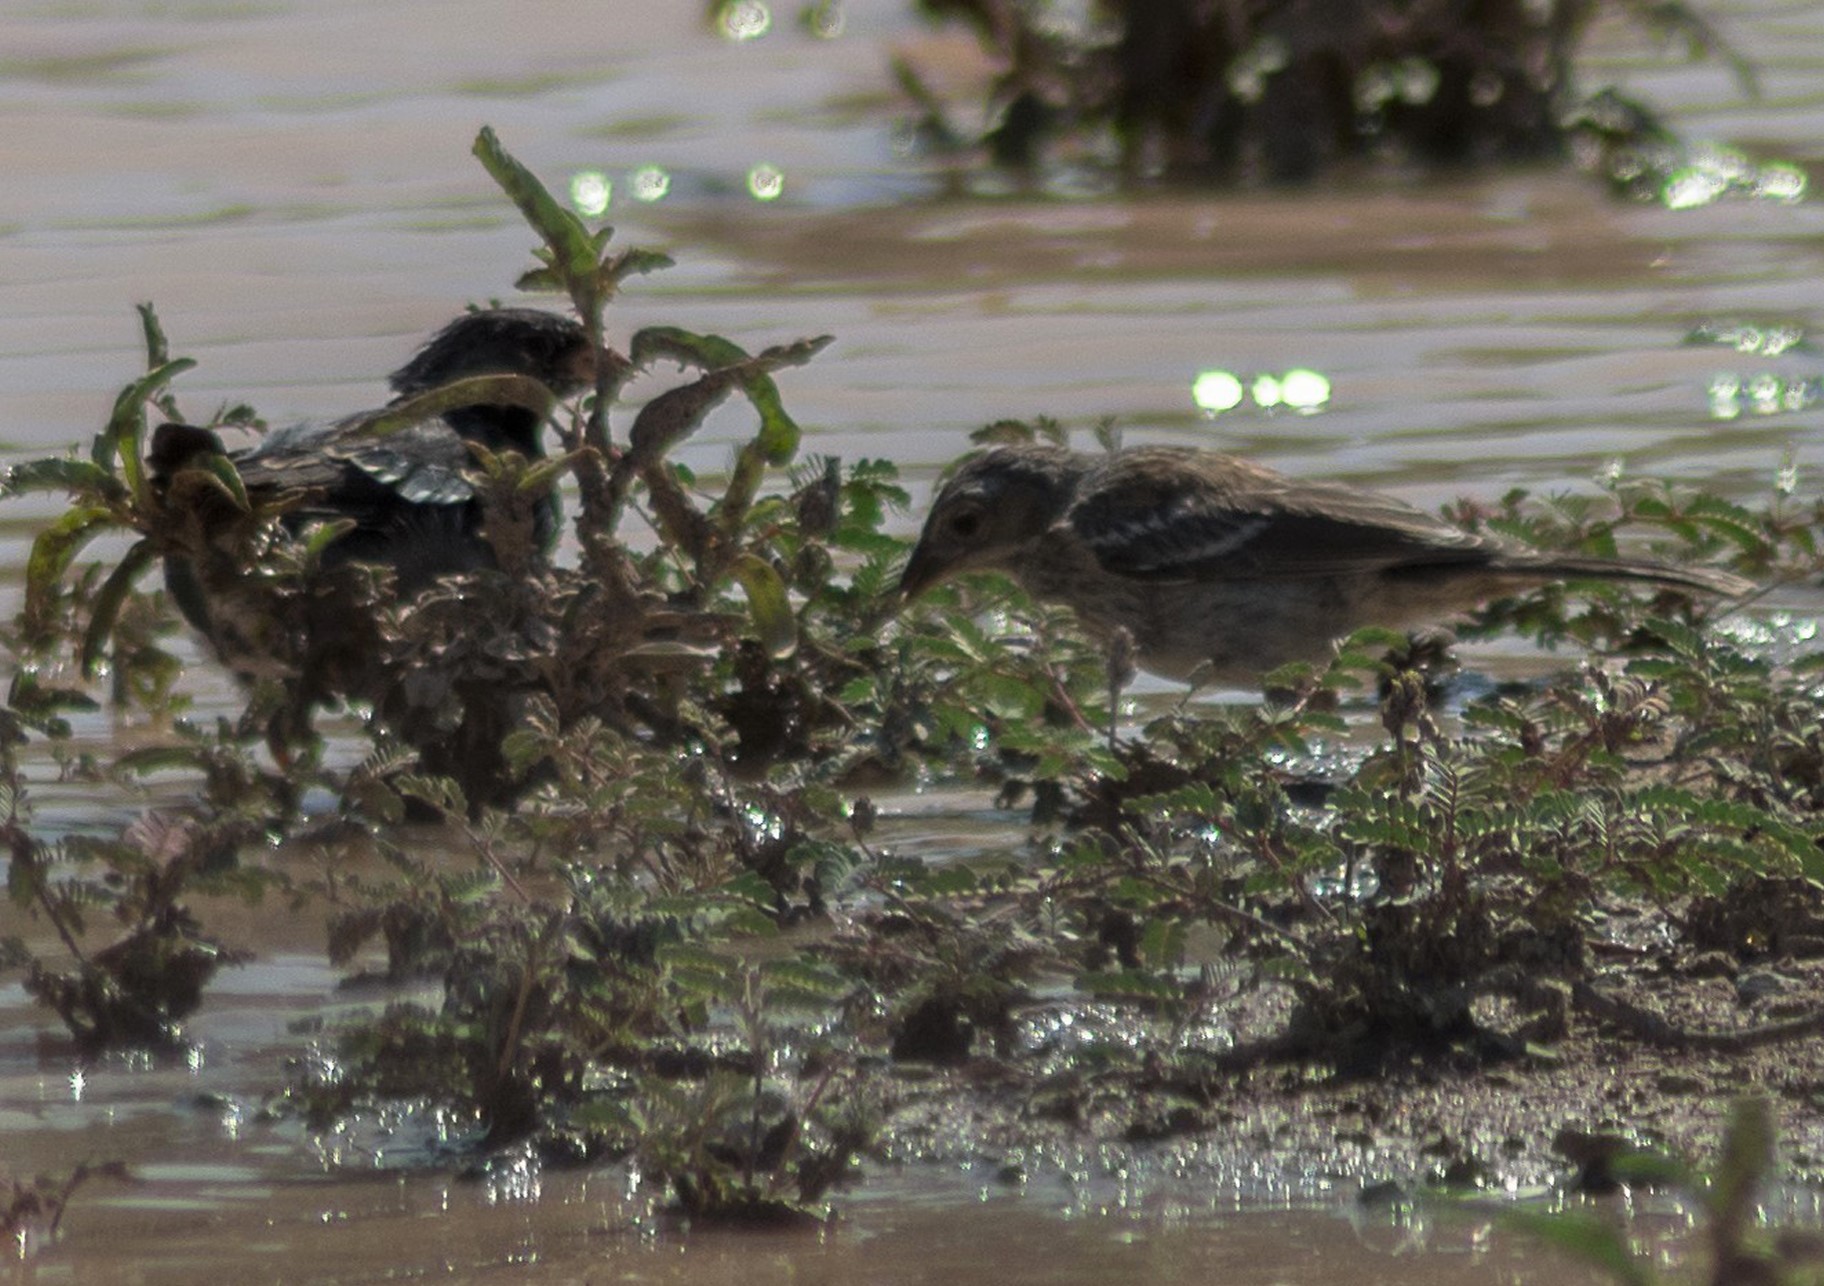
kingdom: Animalia
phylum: Chordata
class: Aves
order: Passeriformes
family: Thraupidae
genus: Rhopospina
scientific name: Rhopospina fruticeti
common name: Mourning sierra finch
